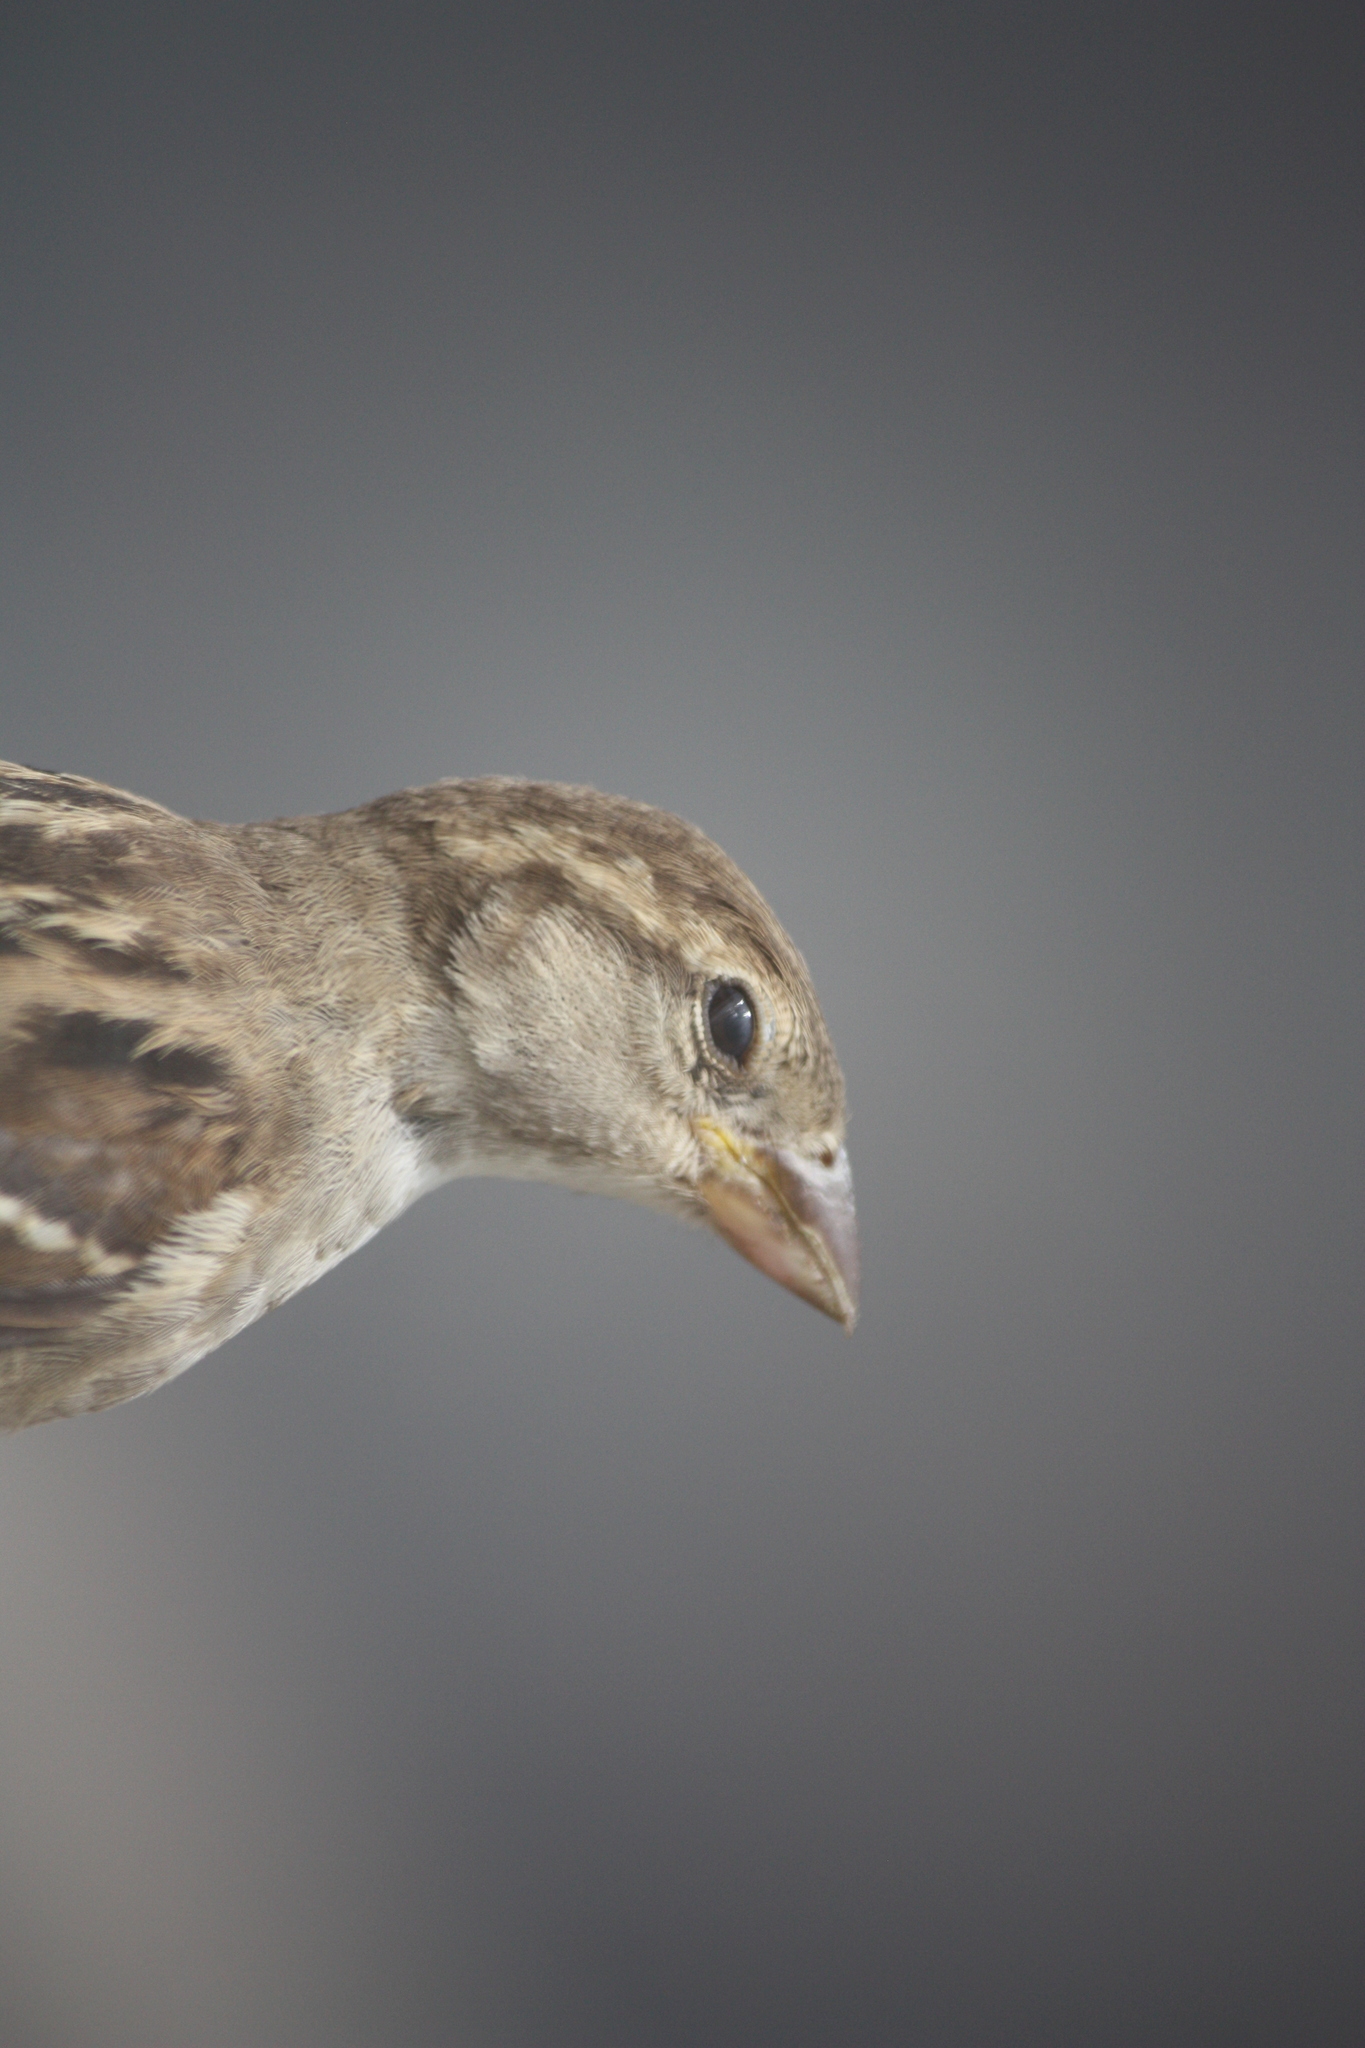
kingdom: Animalia
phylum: Chordata
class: Aves
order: Passeriformes
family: Passeridae
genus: Passer
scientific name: Passer domesticus
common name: House sparrow
